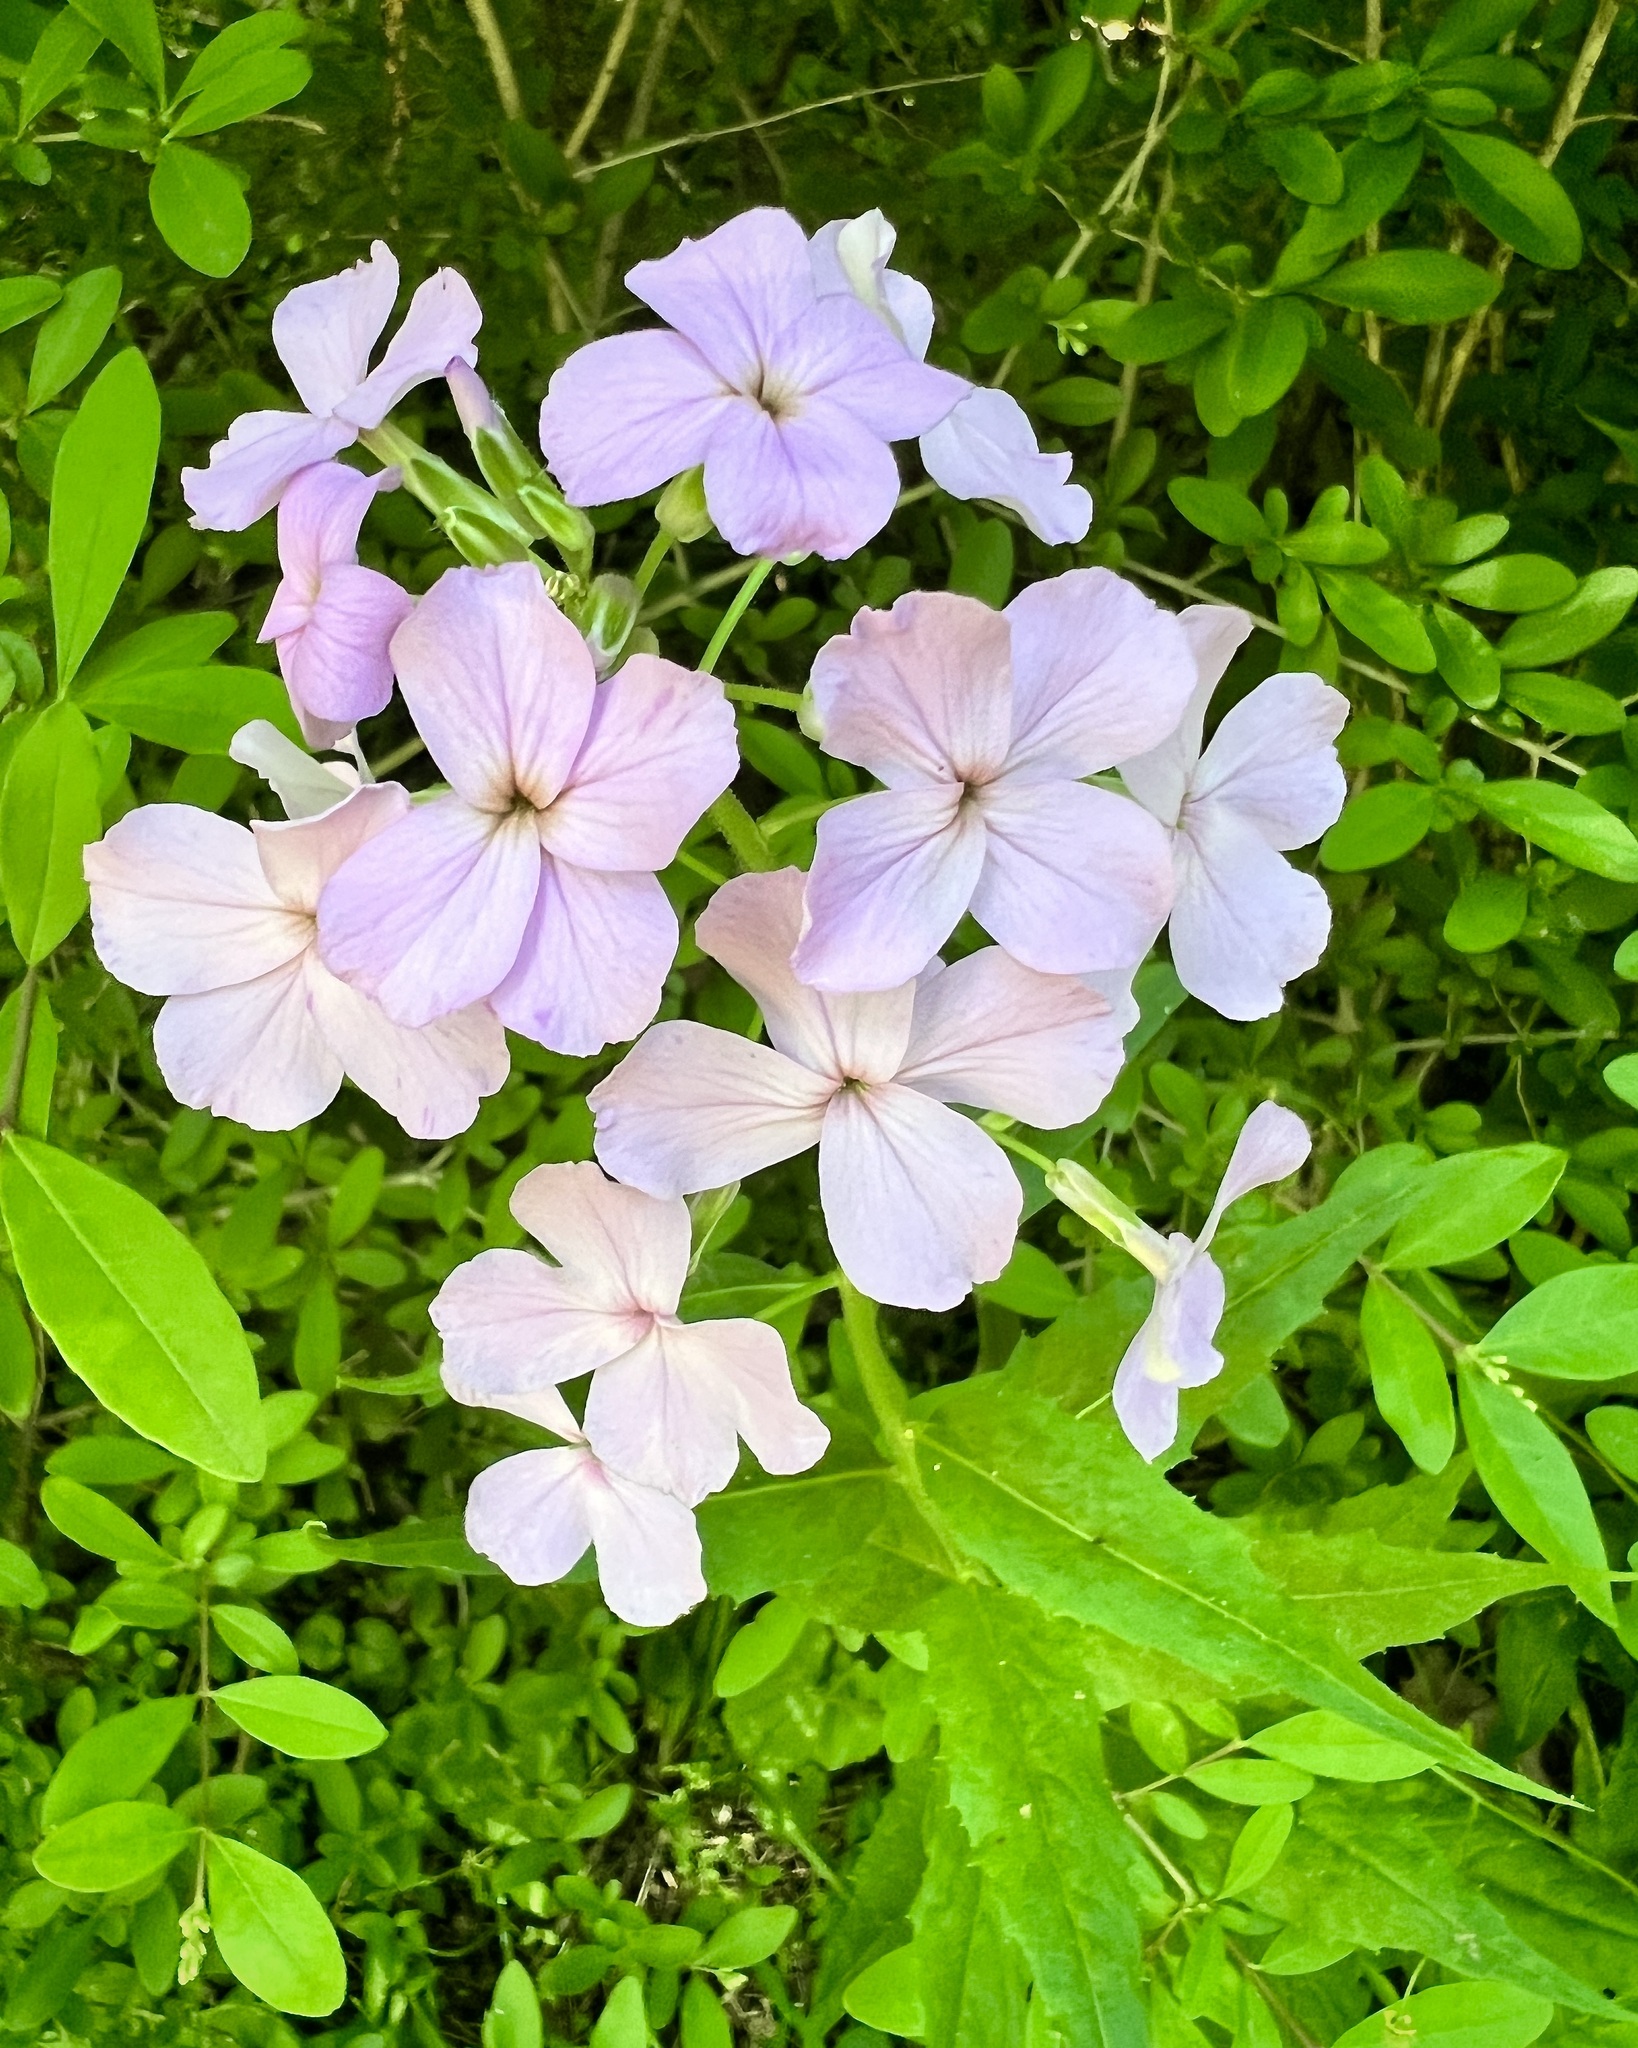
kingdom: Plantae
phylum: Tracheophyta
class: Magnoliopsida
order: Brassicales
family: Brassicaceae
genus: Hesperis
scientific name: Hesperis matronalis
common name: Dame's-violet
